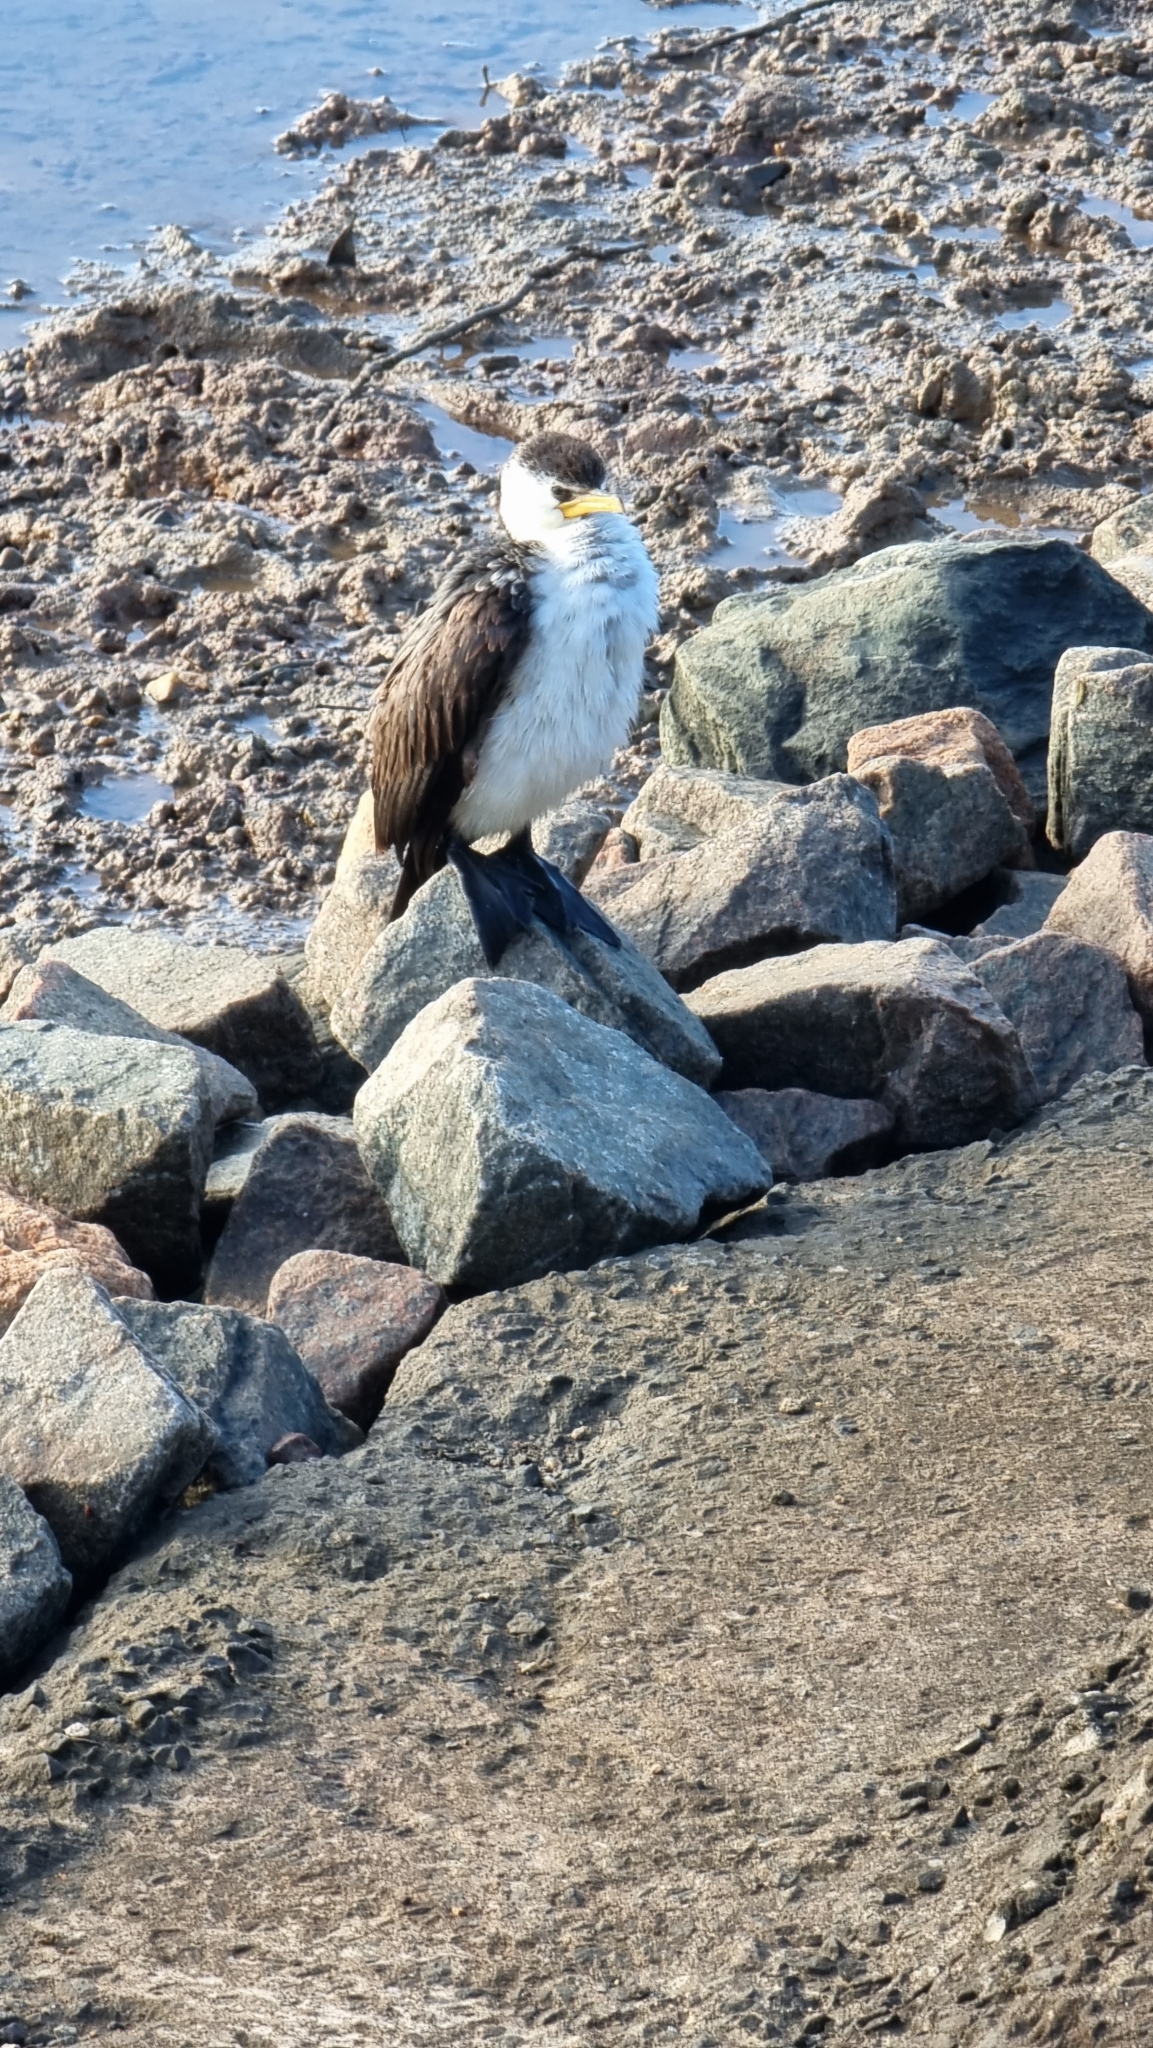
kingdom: Animalia
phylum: Chordata
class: Aves
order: Suliformes
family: Phalacrocoracidae
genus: Microcarbo
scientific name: Microcarbo melanoleucos
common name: Little pied cormorant
